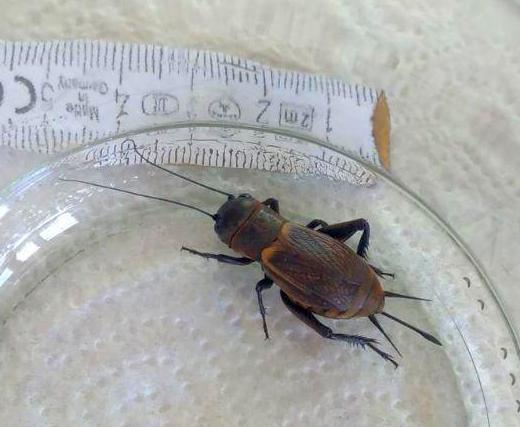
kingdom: Animalia
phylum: Arthropoda
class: Insecta
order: Orthoptera
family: Gryllidae
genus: Gryllus
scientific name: Gryllus campestris
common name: Field cricket
